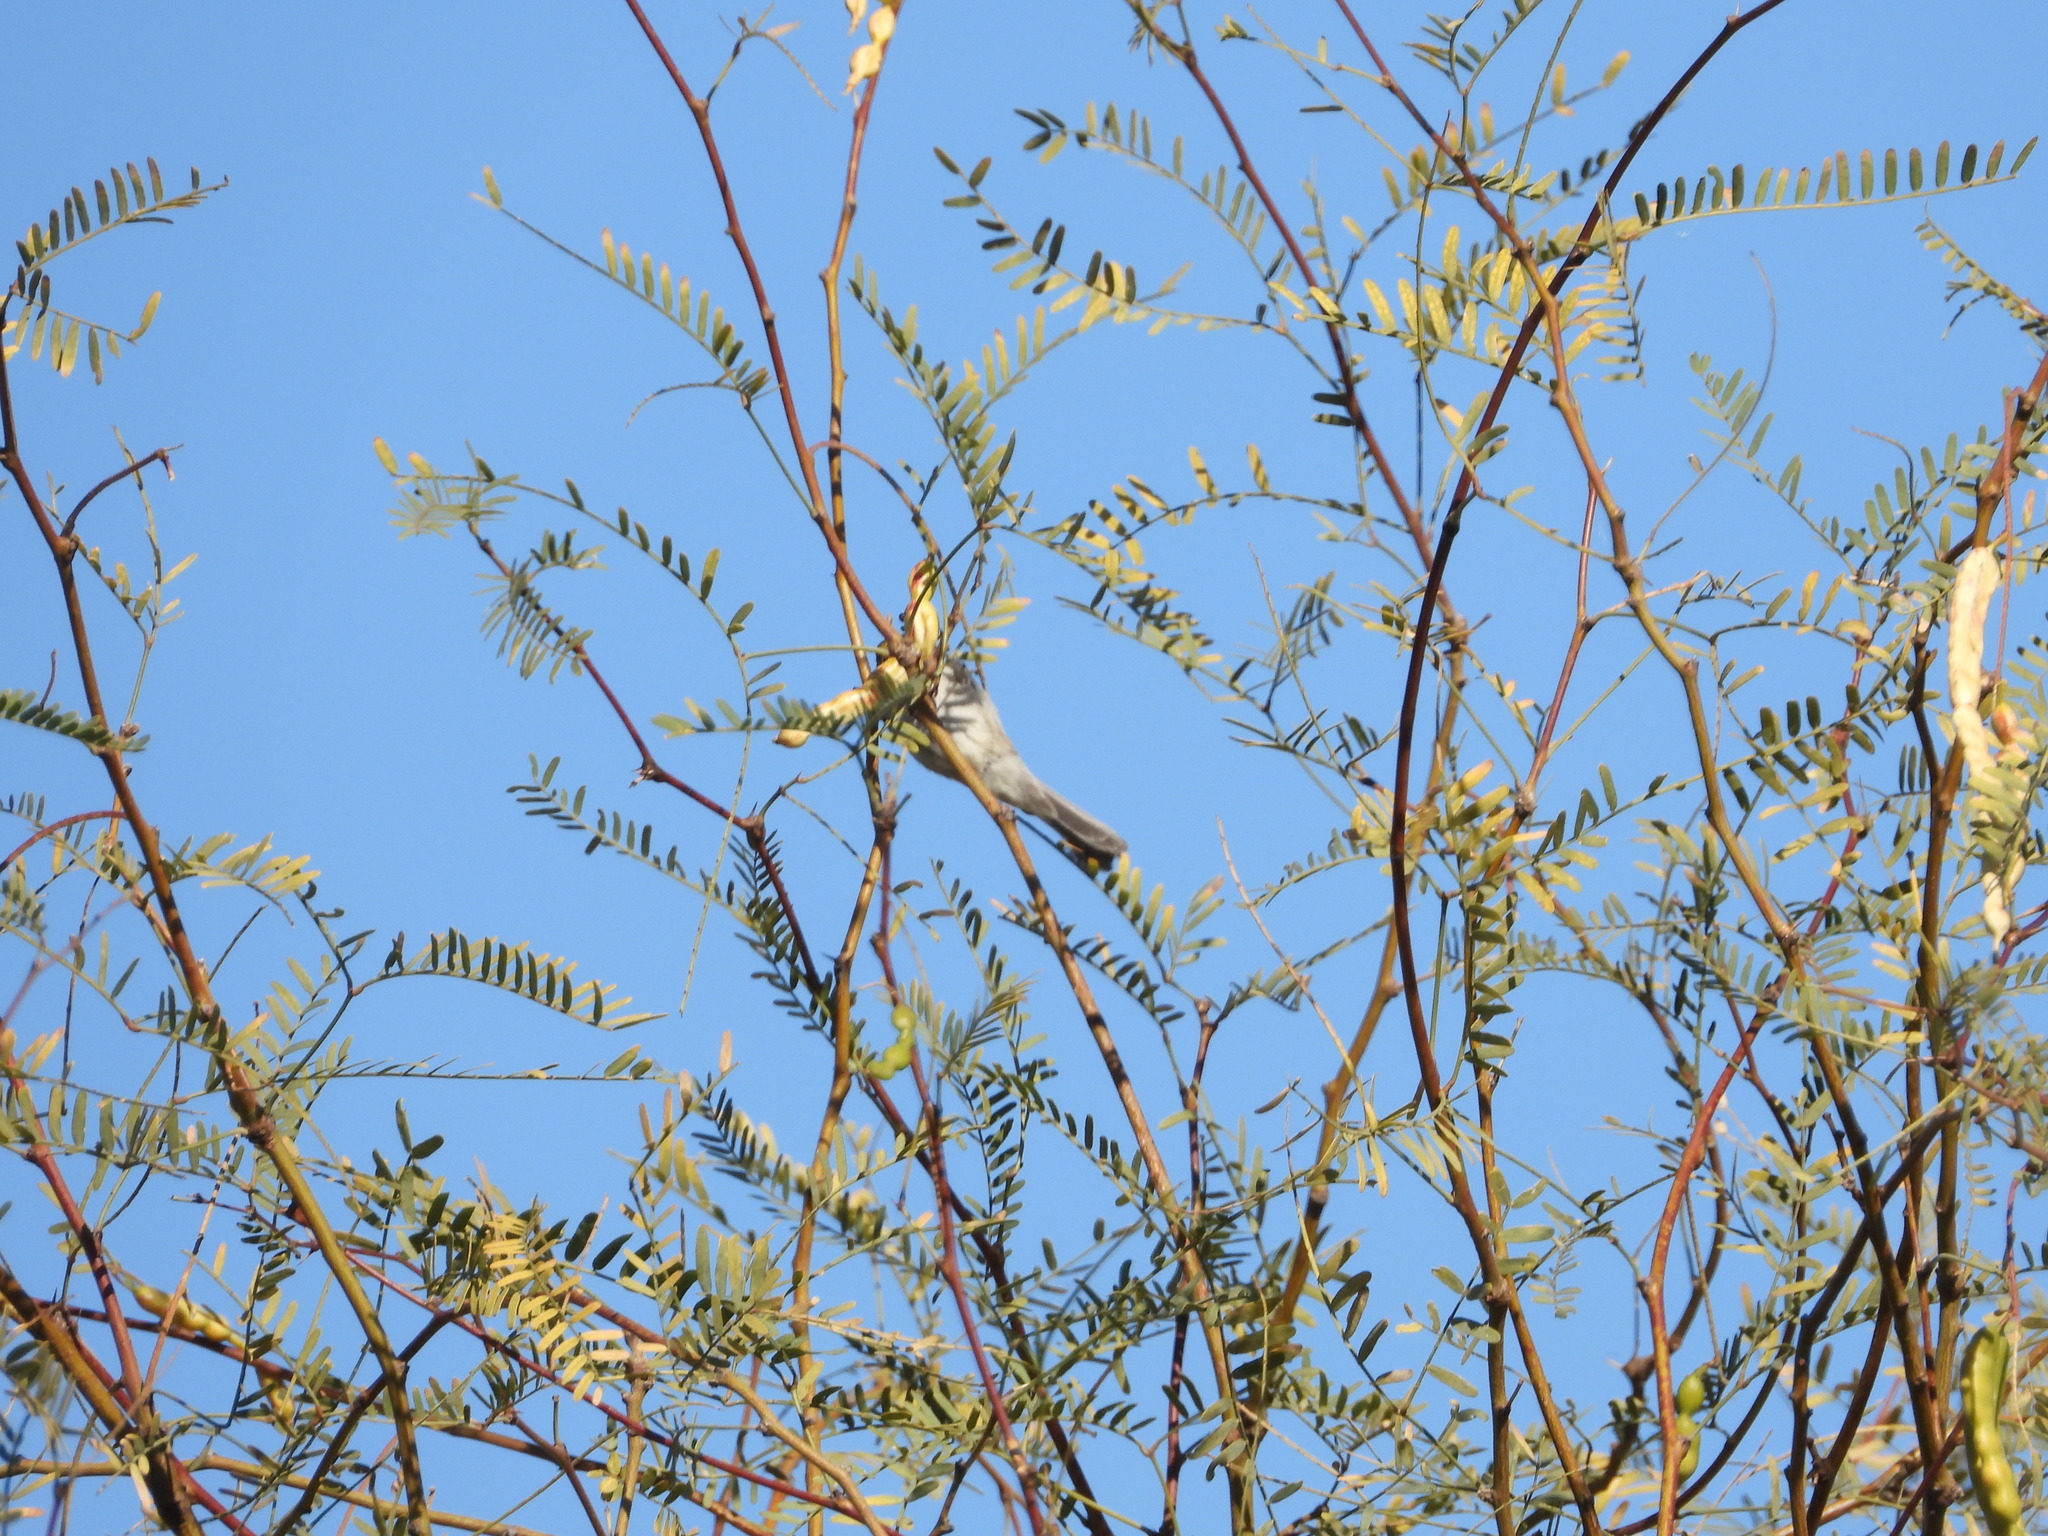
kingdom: Animalia
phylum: Chordata
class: Aves
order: Passeriformes
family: Remizidae
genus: Auriparus
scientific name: Auriparus flaviceps
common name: Verdin
